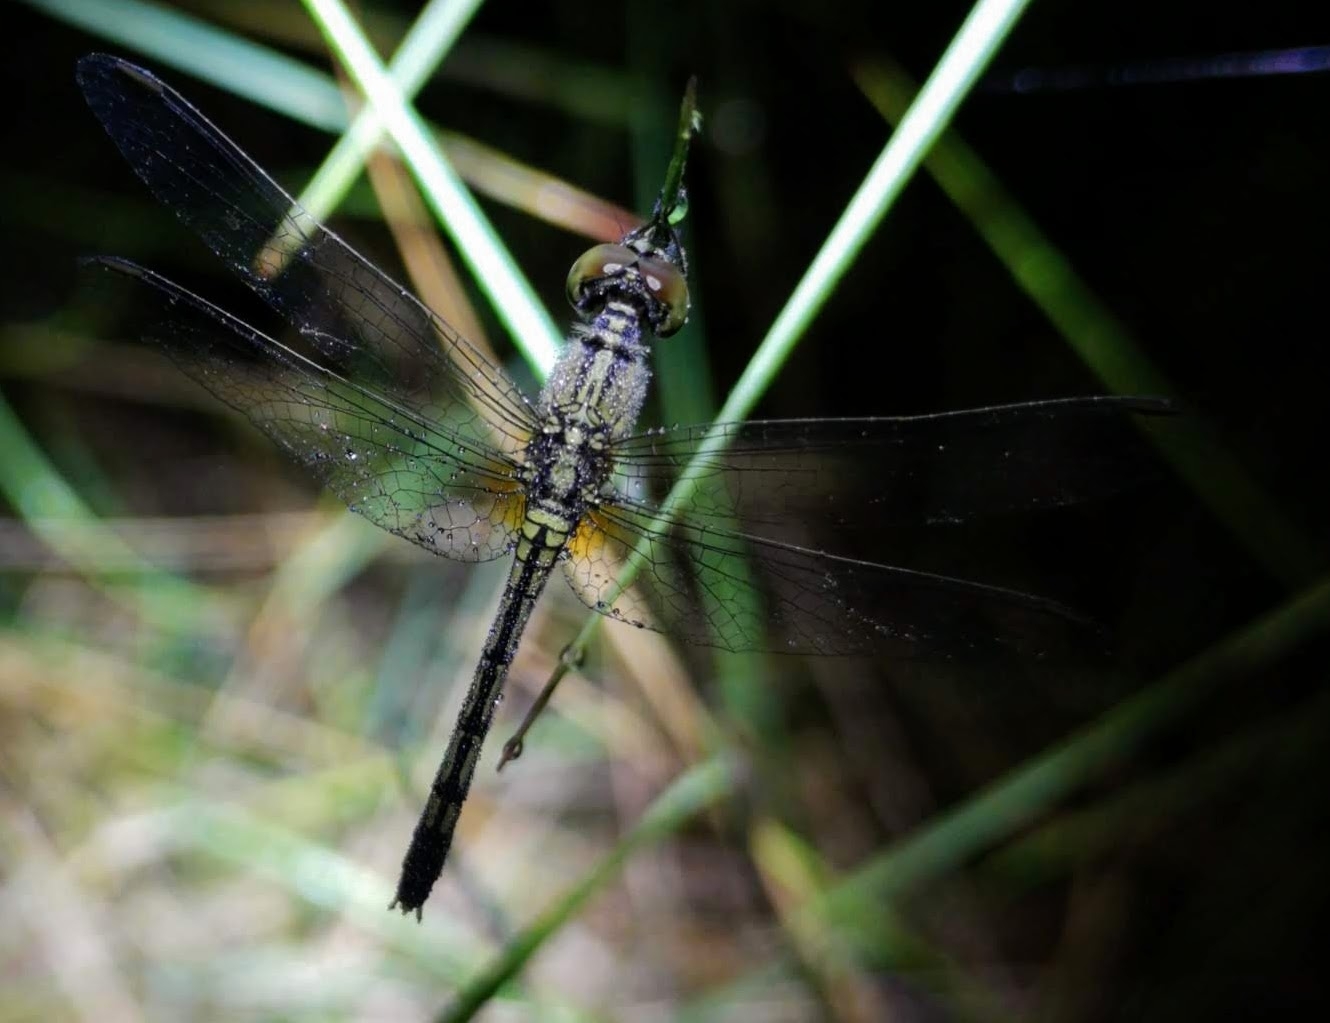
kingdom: Animalia
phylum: Arthropoda
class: Insecta
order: Odonata
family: Libellulidae
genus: Diplacodes
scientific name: Diplacodes trivialis
